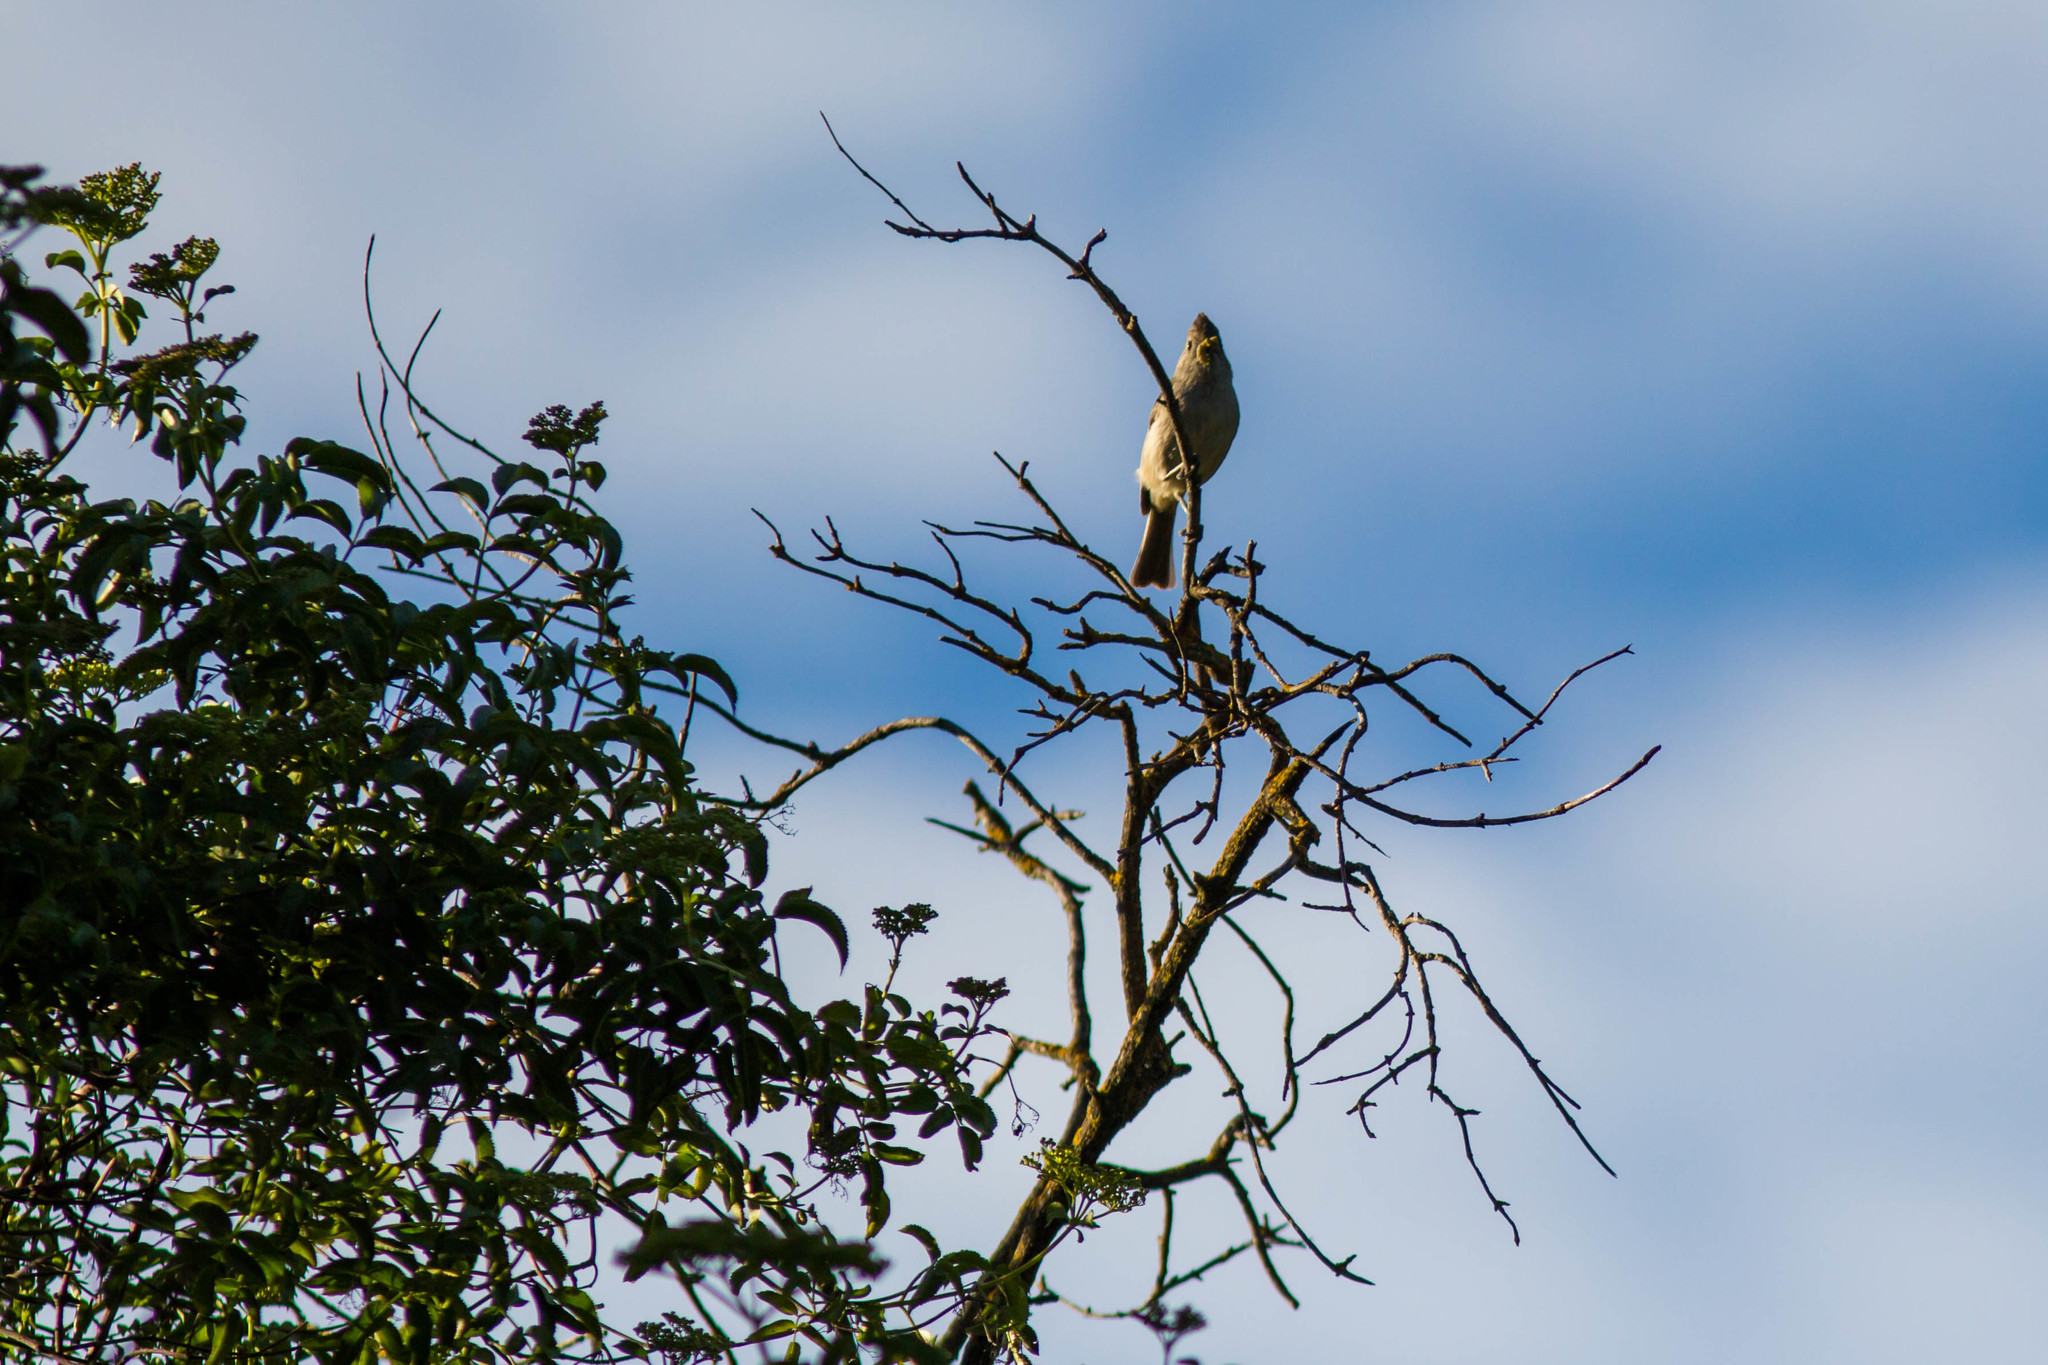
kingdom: Animalia
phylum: Chordata
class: Aves
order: Passeriformes
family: Paridae
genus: Baeolophus
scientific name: Baeolophus inornatus
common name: Oak titmouse
